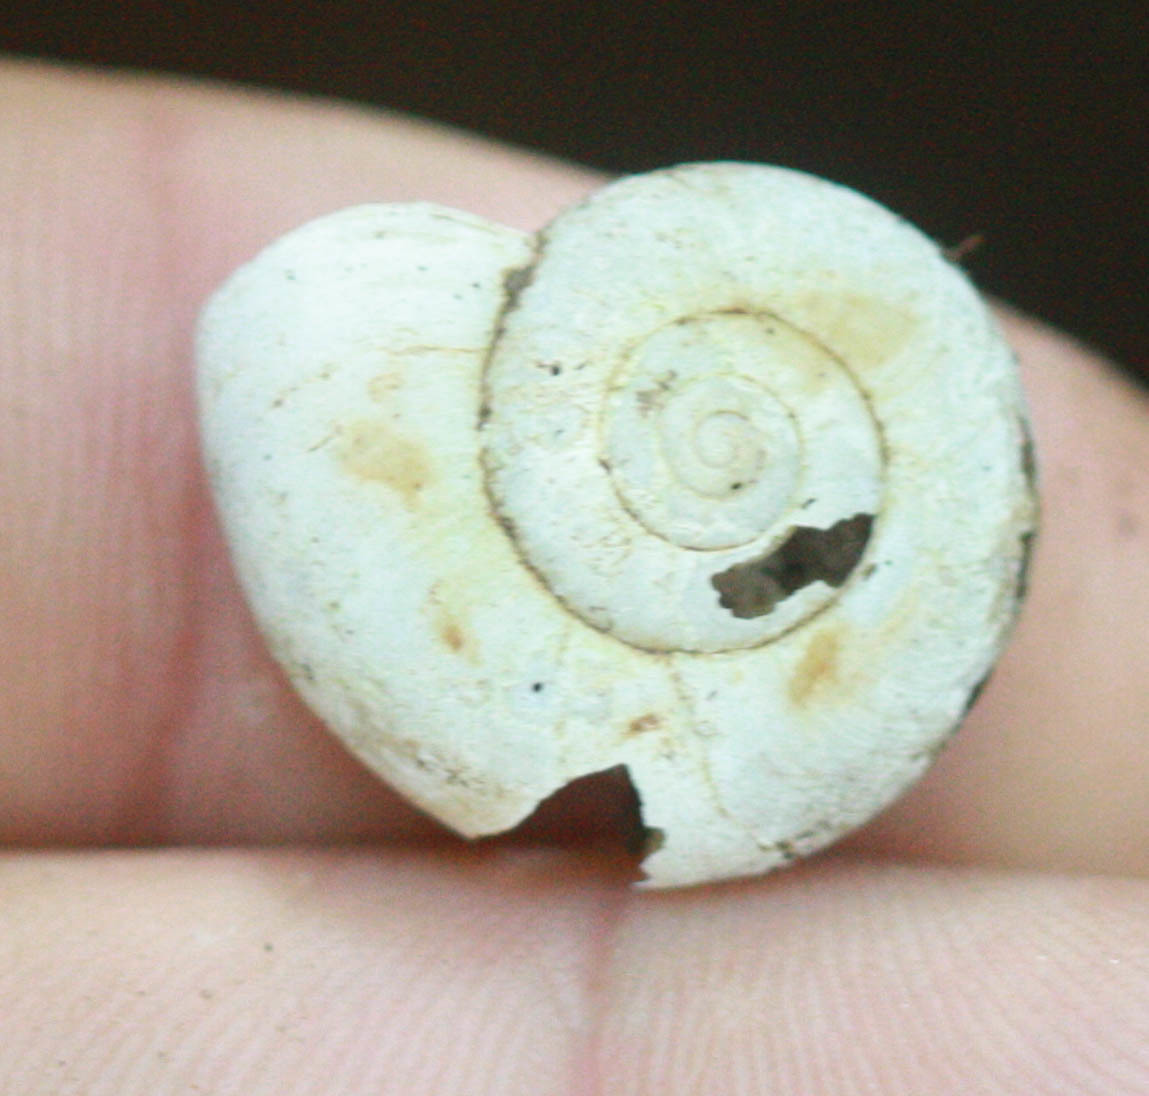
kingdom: Animalia
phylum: Mollusca
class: Gastropoda
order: Stylommatophora
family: Haplotrematidae
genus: Haplotrema
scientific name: Haplotrema minimum
